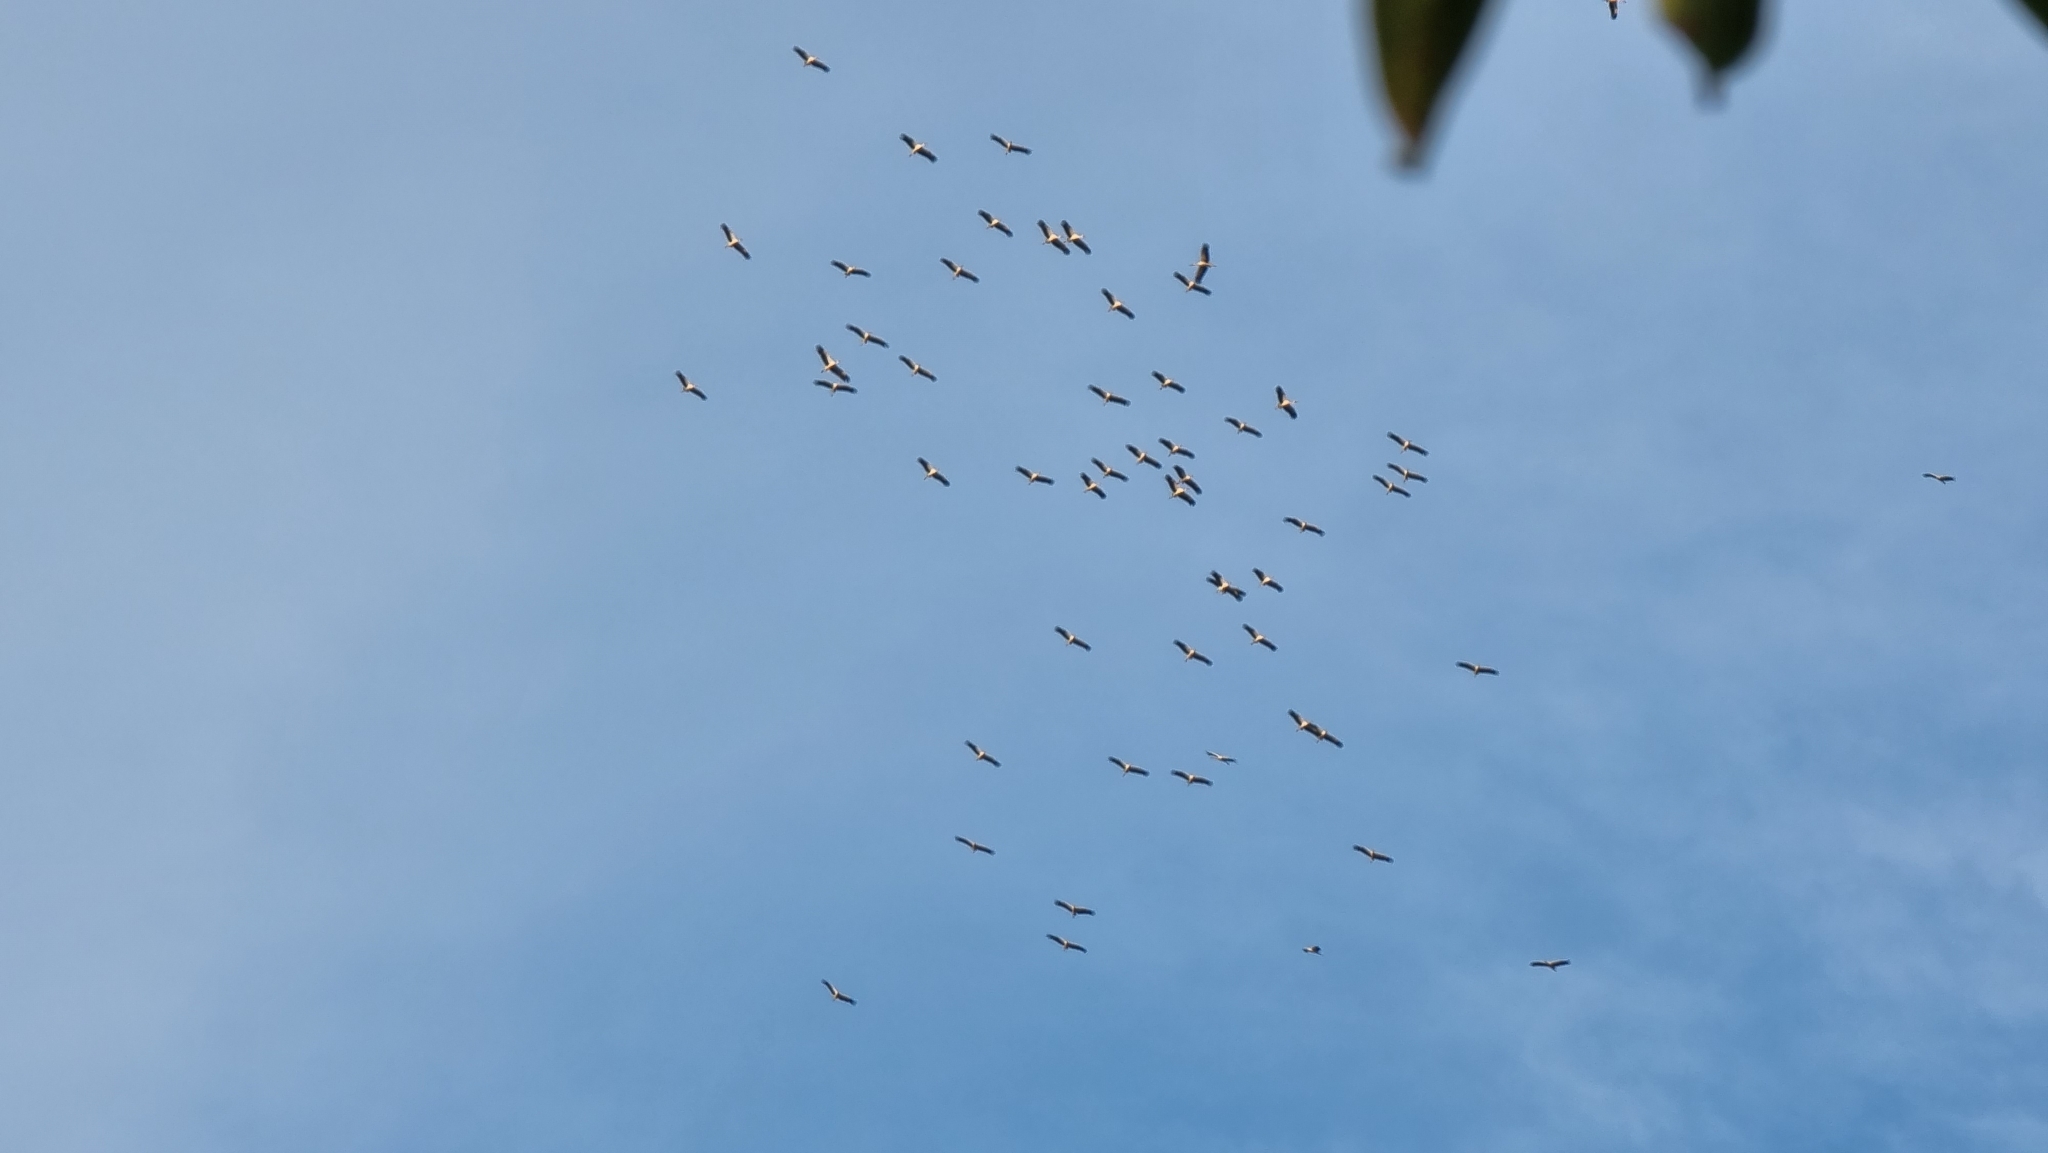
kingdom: Animalia
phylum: Chordata
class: Aves
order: Ciconiiformes
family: Ciconiidae
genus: Ciconia
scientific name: Ciconia ciconia
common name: White stork
